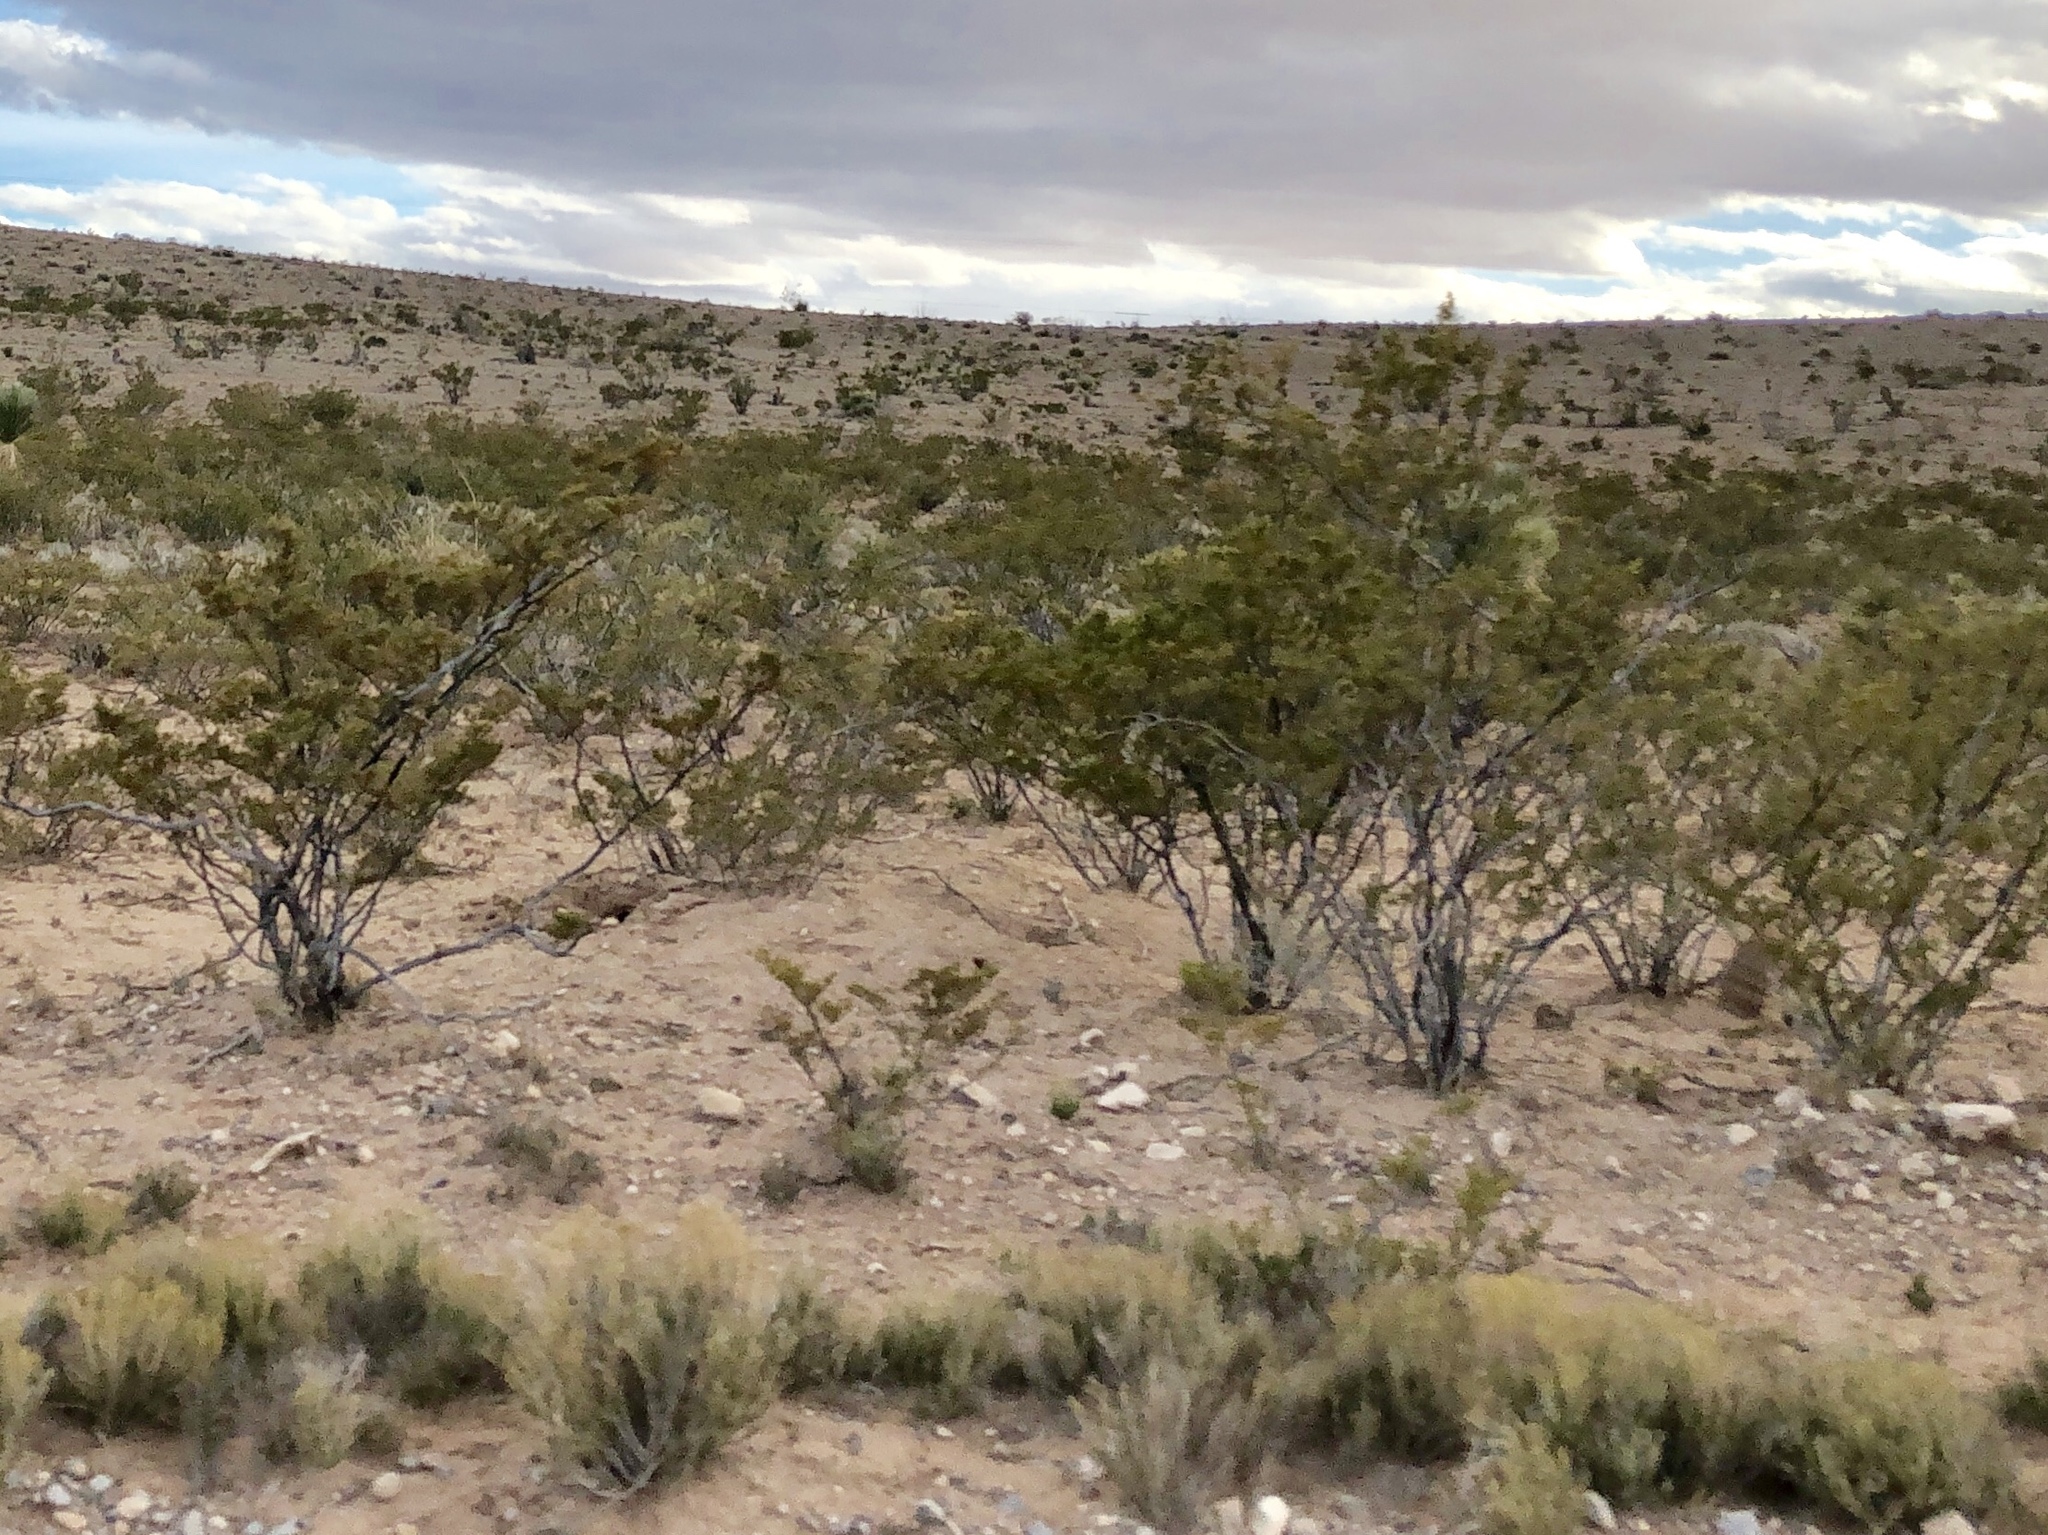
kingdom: Plantae
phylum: Tracheophyta
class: Magnoliopsida
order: Zygophyllales
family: Zygophyllaceae
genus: Larrea
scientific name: Larrea tridentata
